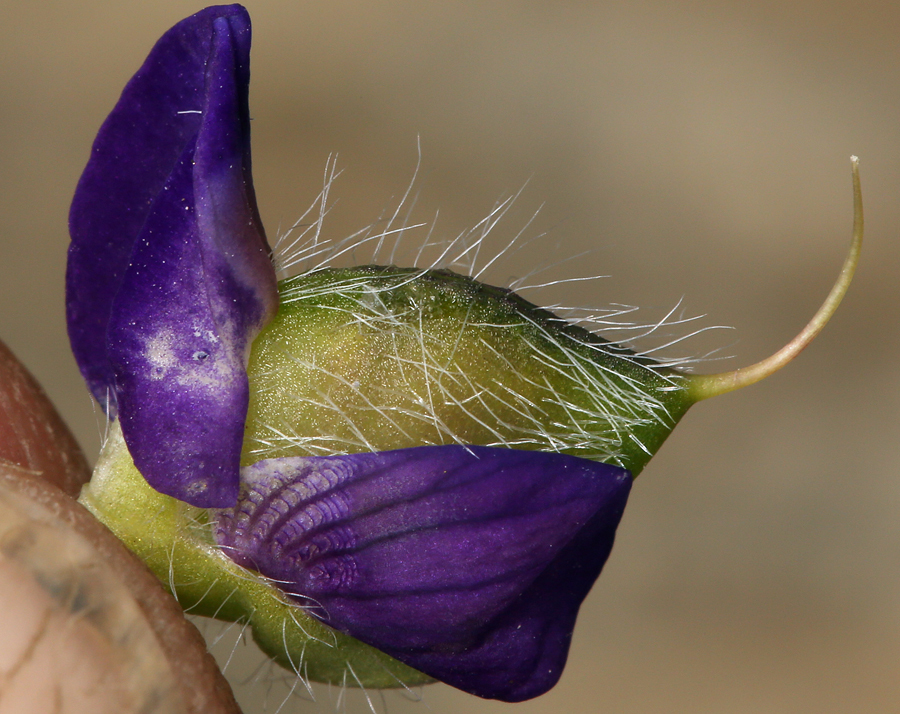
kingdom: Plantae
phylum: Tracheophyta
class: Magnoliopsida
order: Fabales
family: Fabaceae
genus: Lupinus
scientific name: Lupinus flavoculatus
